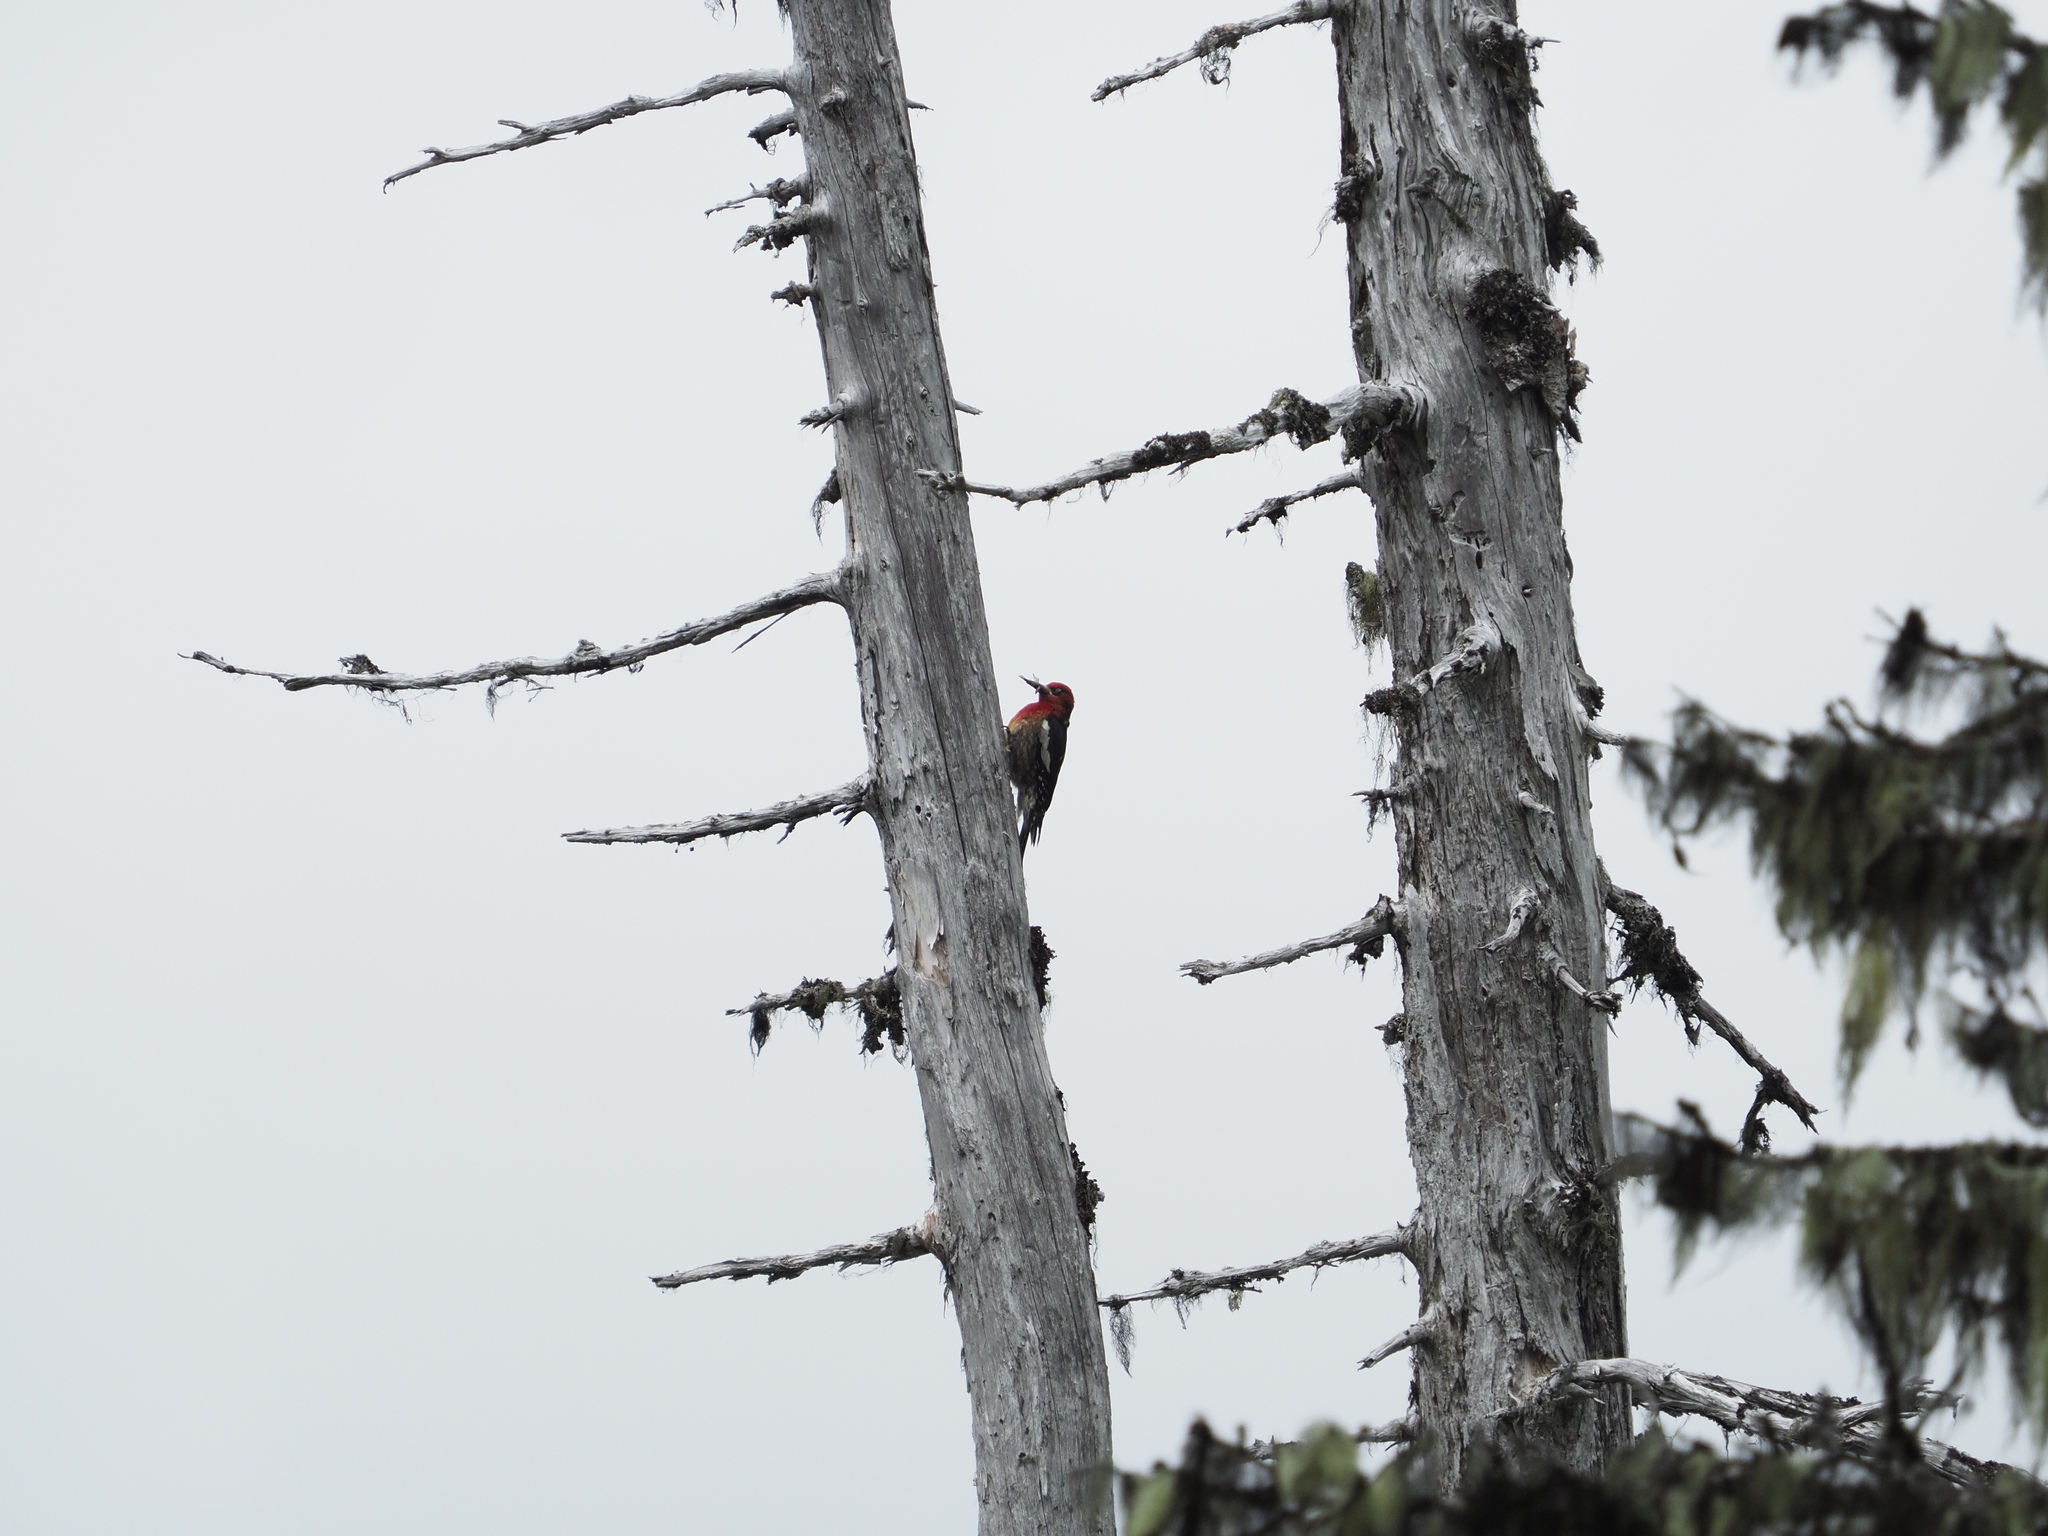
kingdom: Animalia
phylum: Chordata
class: Aves
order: Piciformes
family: Picidae
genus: Sphyrapicus
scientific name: Sphyrapicus ruber
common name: Red-breasted sapsucker
